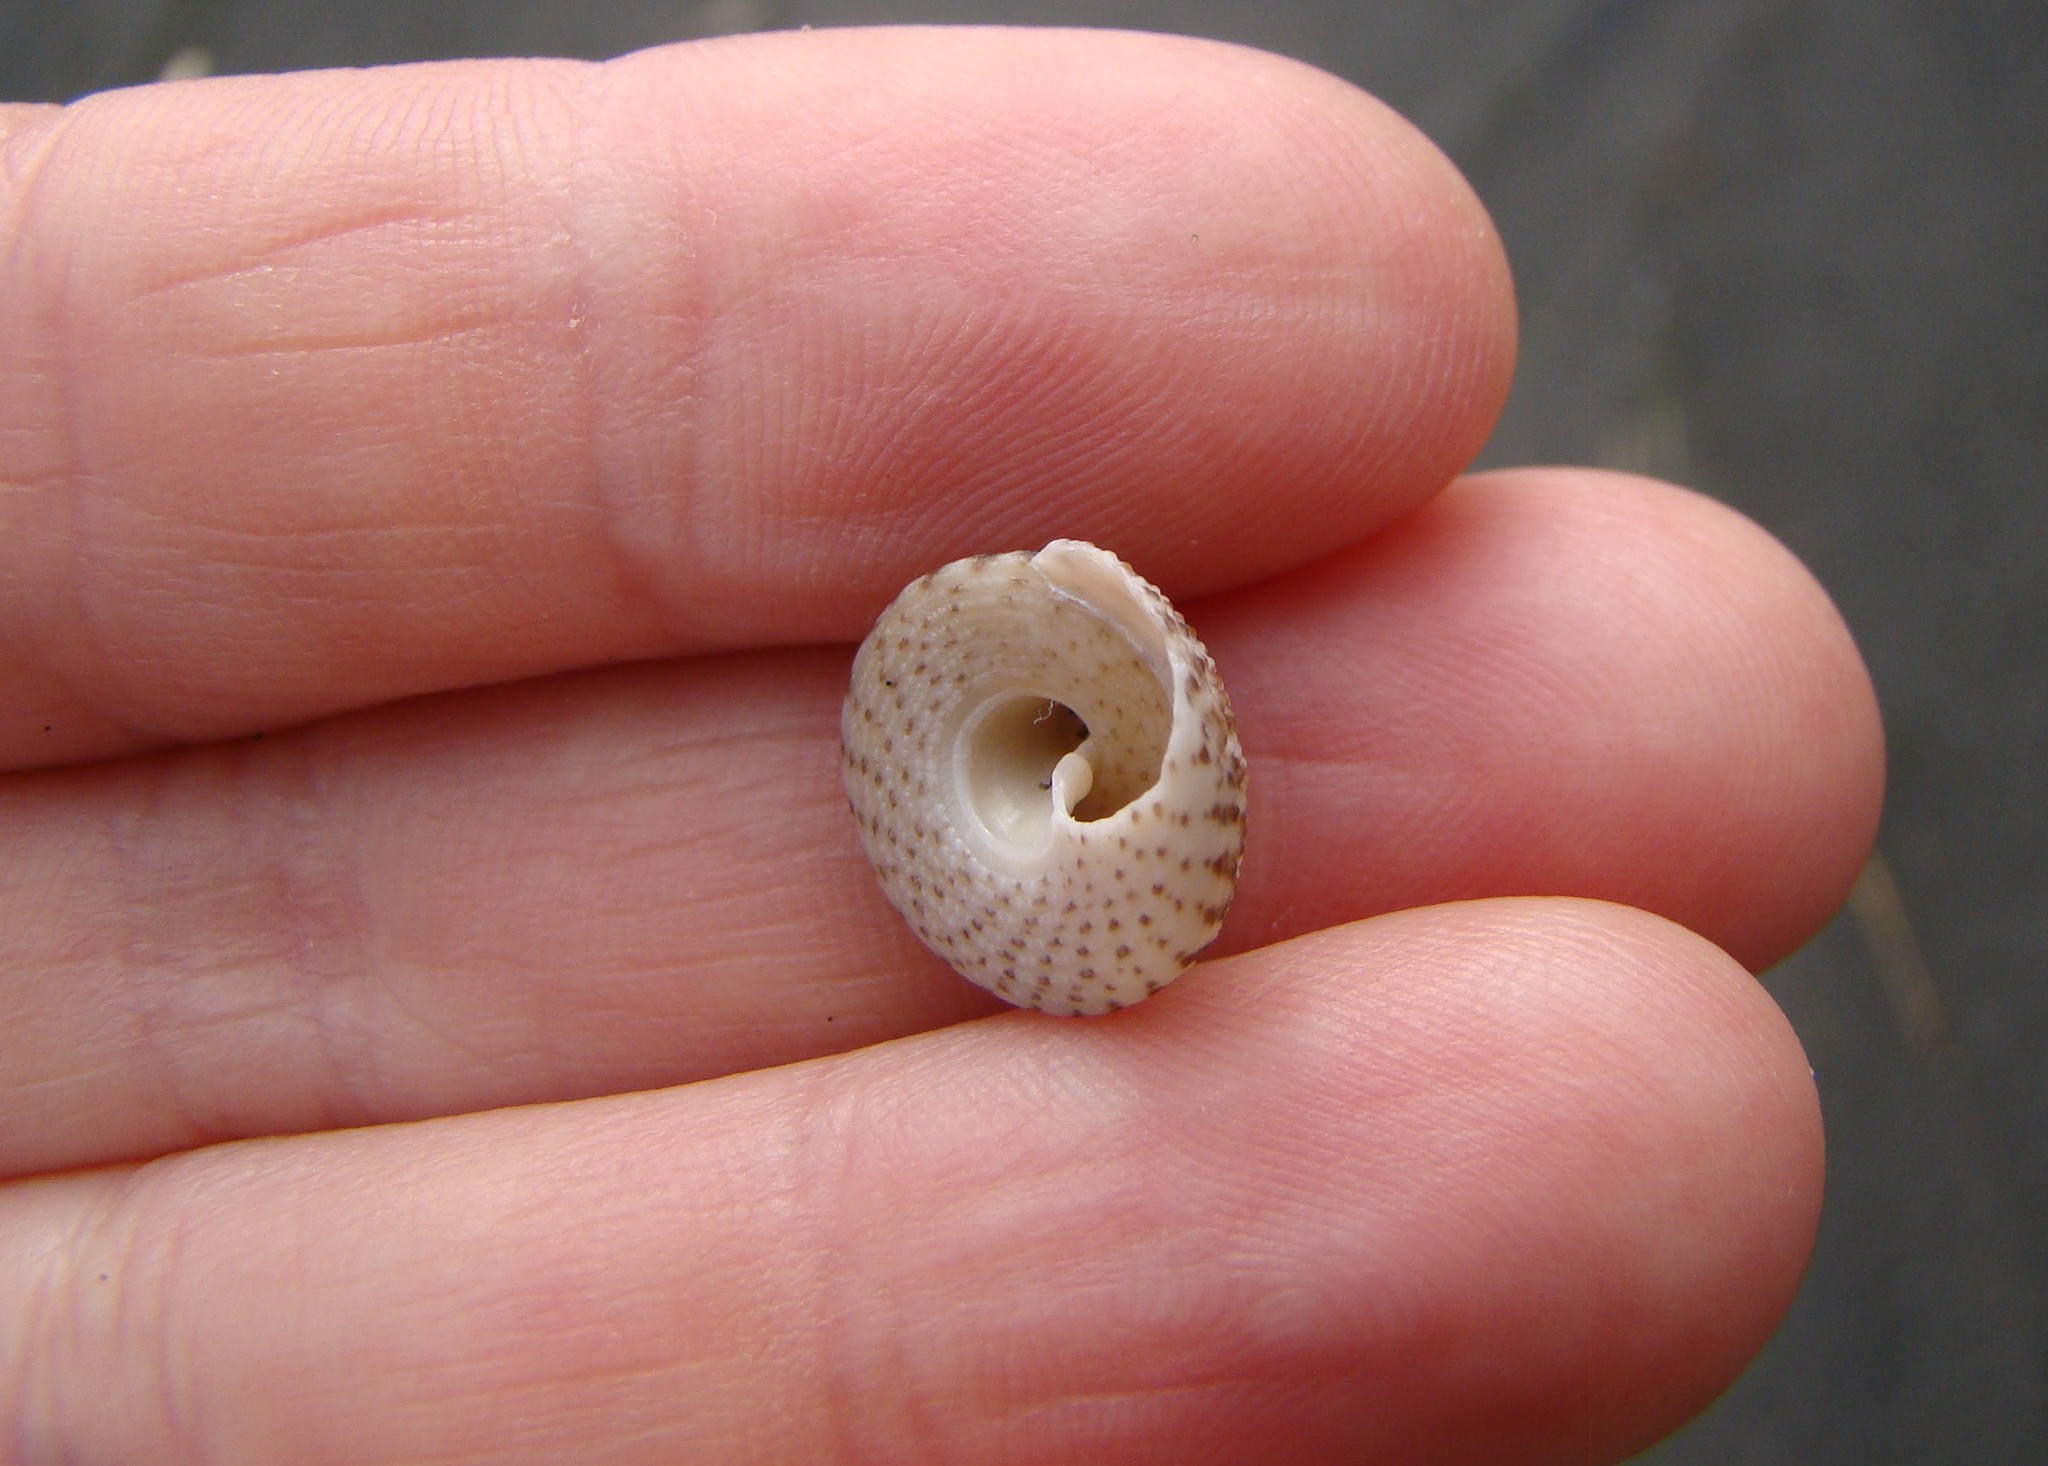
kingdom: Animalia
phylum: Mollusca
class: Gastropoda
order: Trochida
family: Trochidae
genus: Coelotrochus
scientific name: Coelotrochus tiaratus
